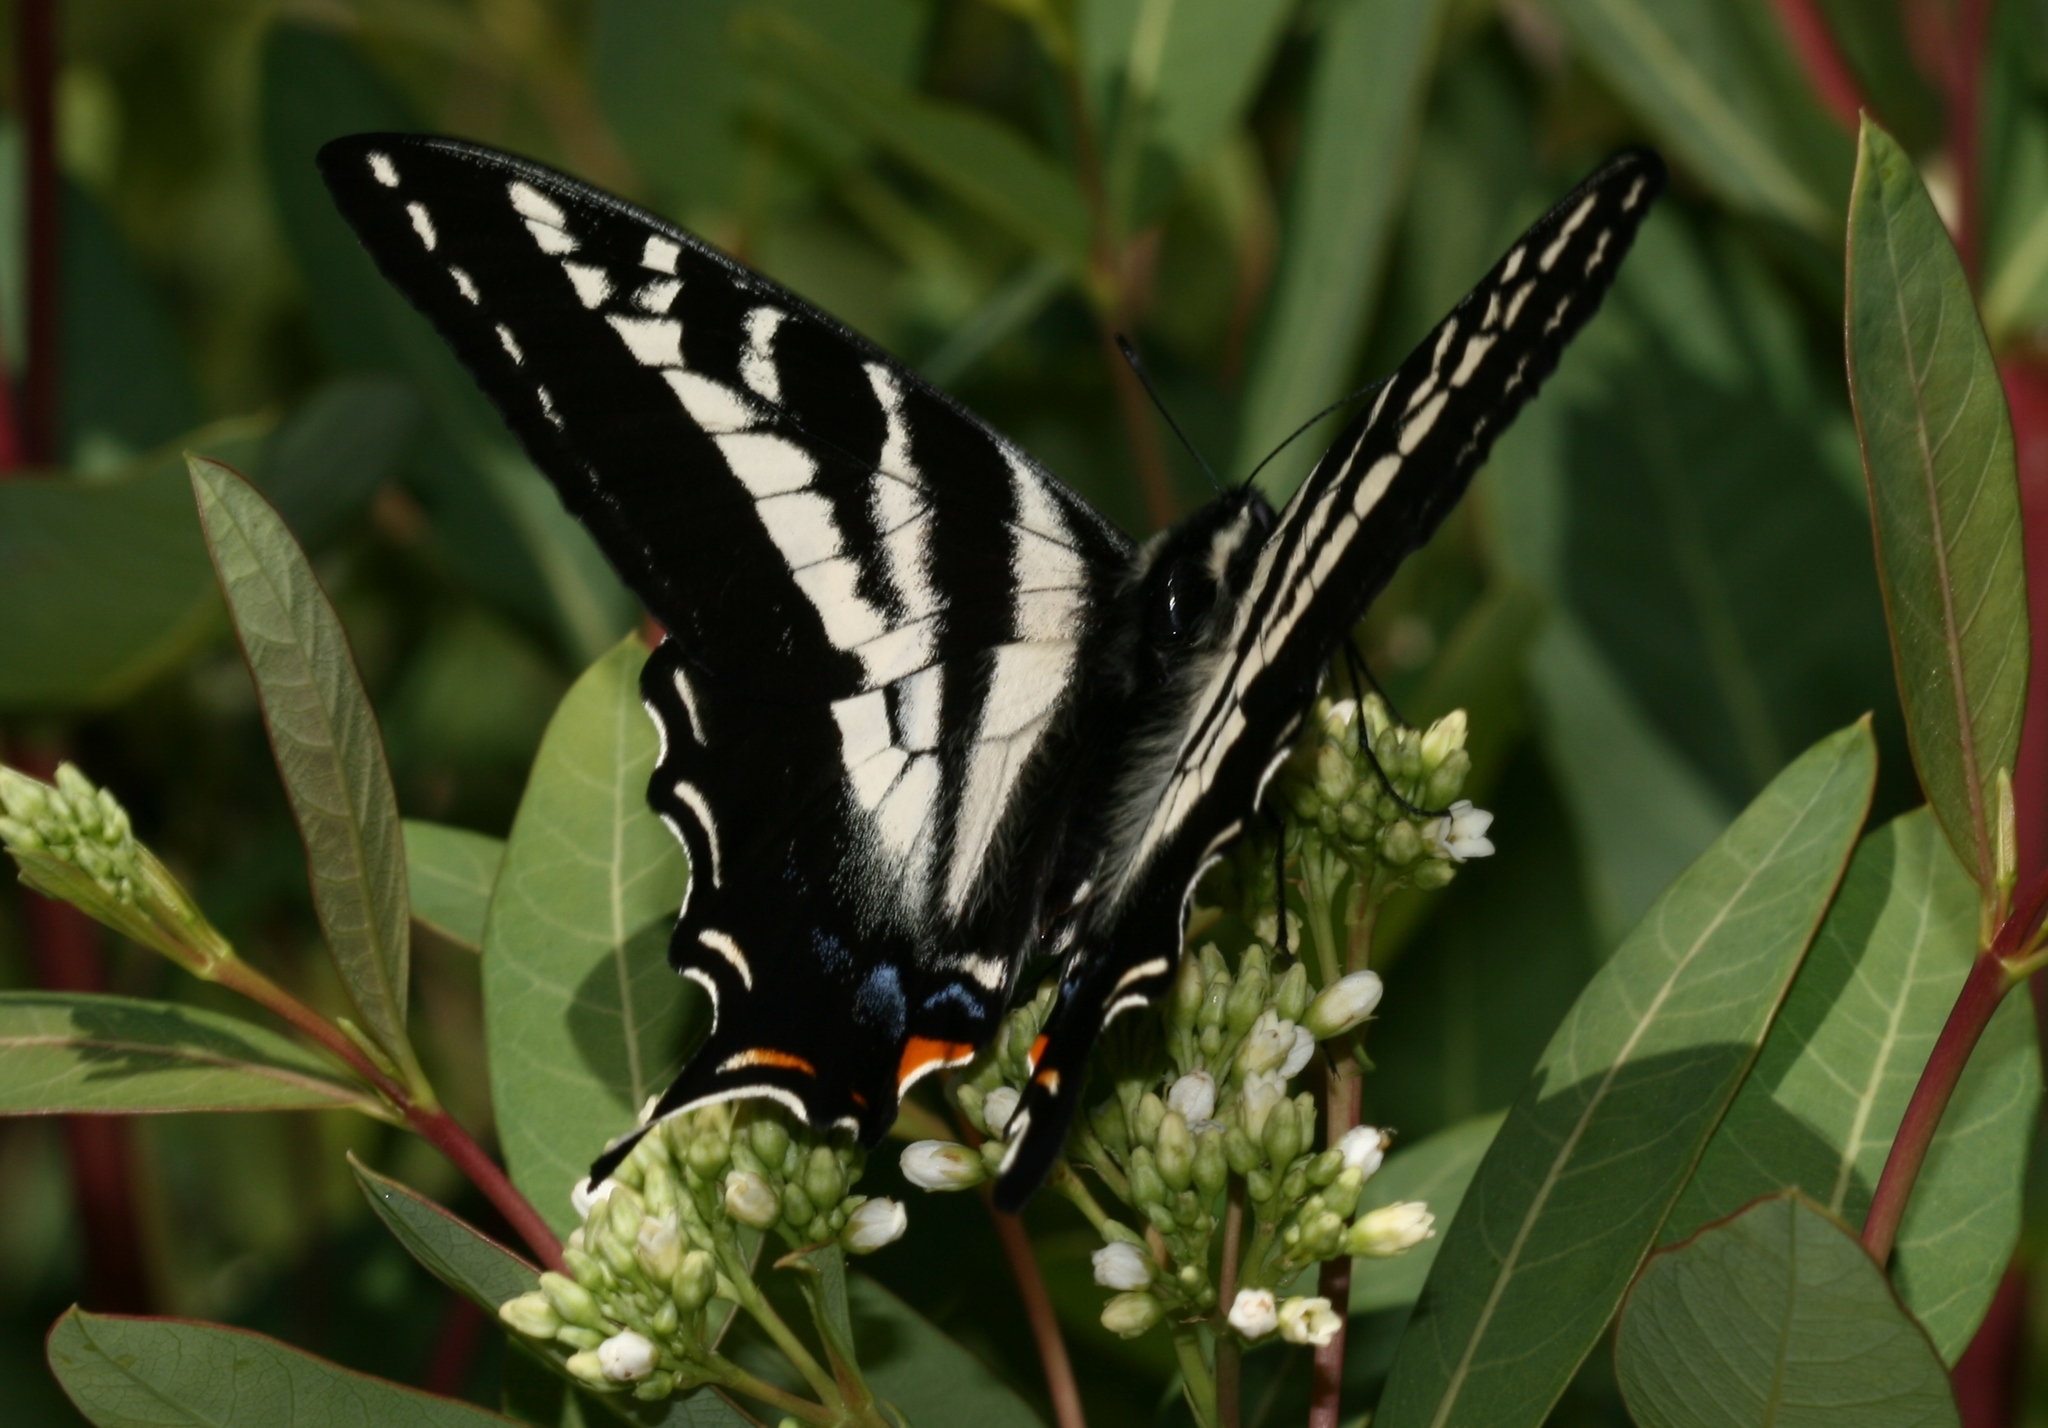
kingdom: Animalia
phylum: Arthropoda
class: Insecta
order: Lepidoptera
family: Papilionidae
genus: Papilio
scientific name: Papilio eurymedon
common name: Pale tiger swallowtail
